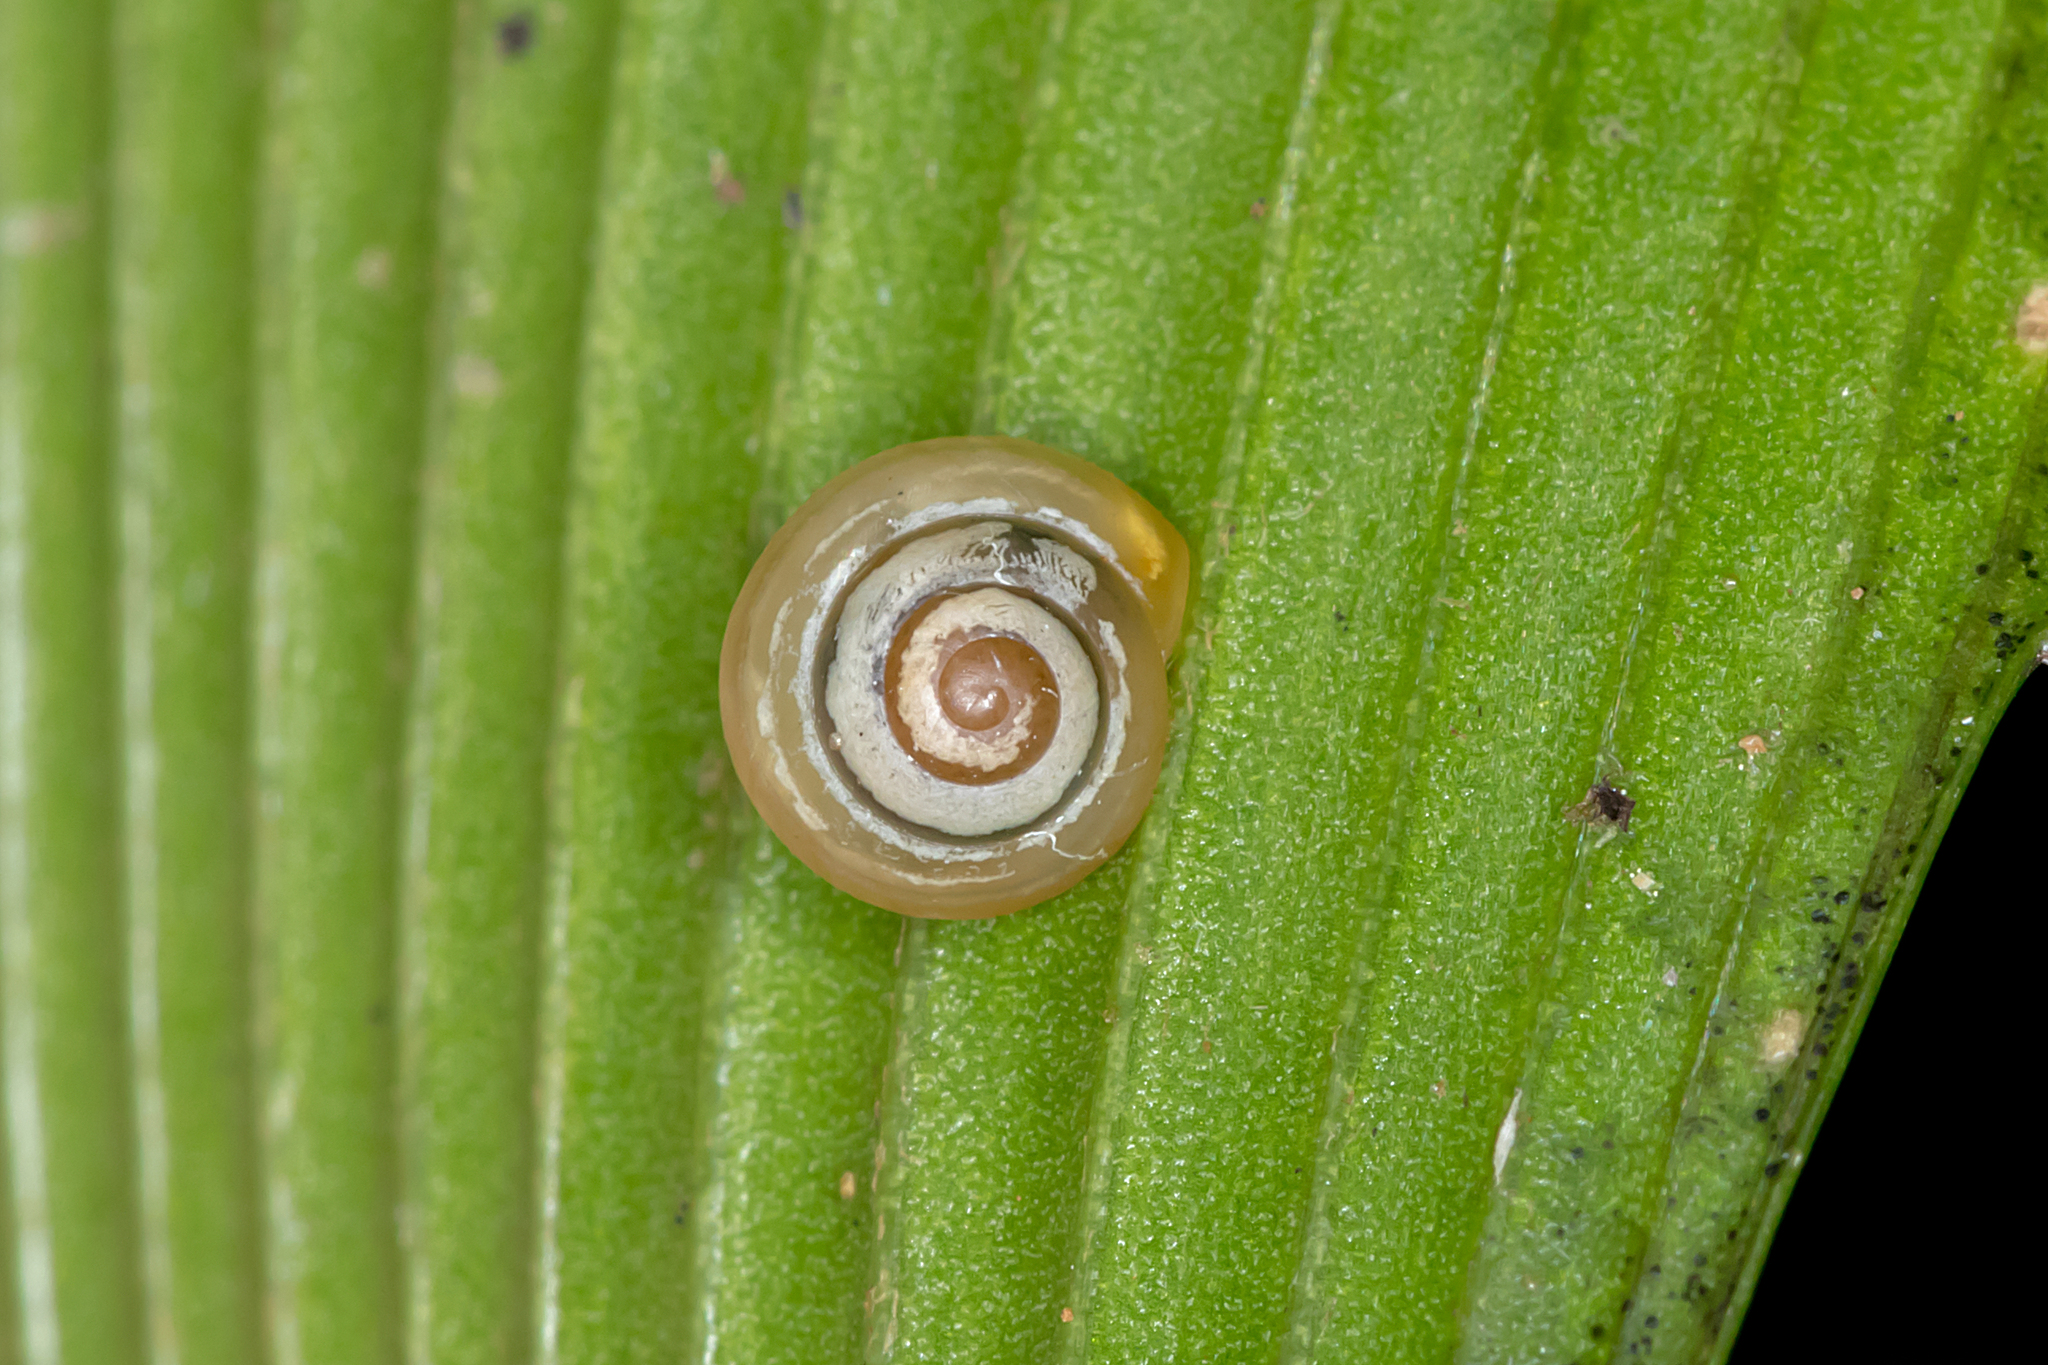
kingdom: Animalia
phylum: Mollusca
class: Gastropoda
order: Stylommatophora
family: Euconulidae
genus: Coneuplecta
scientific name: Coneuplecta pampini
